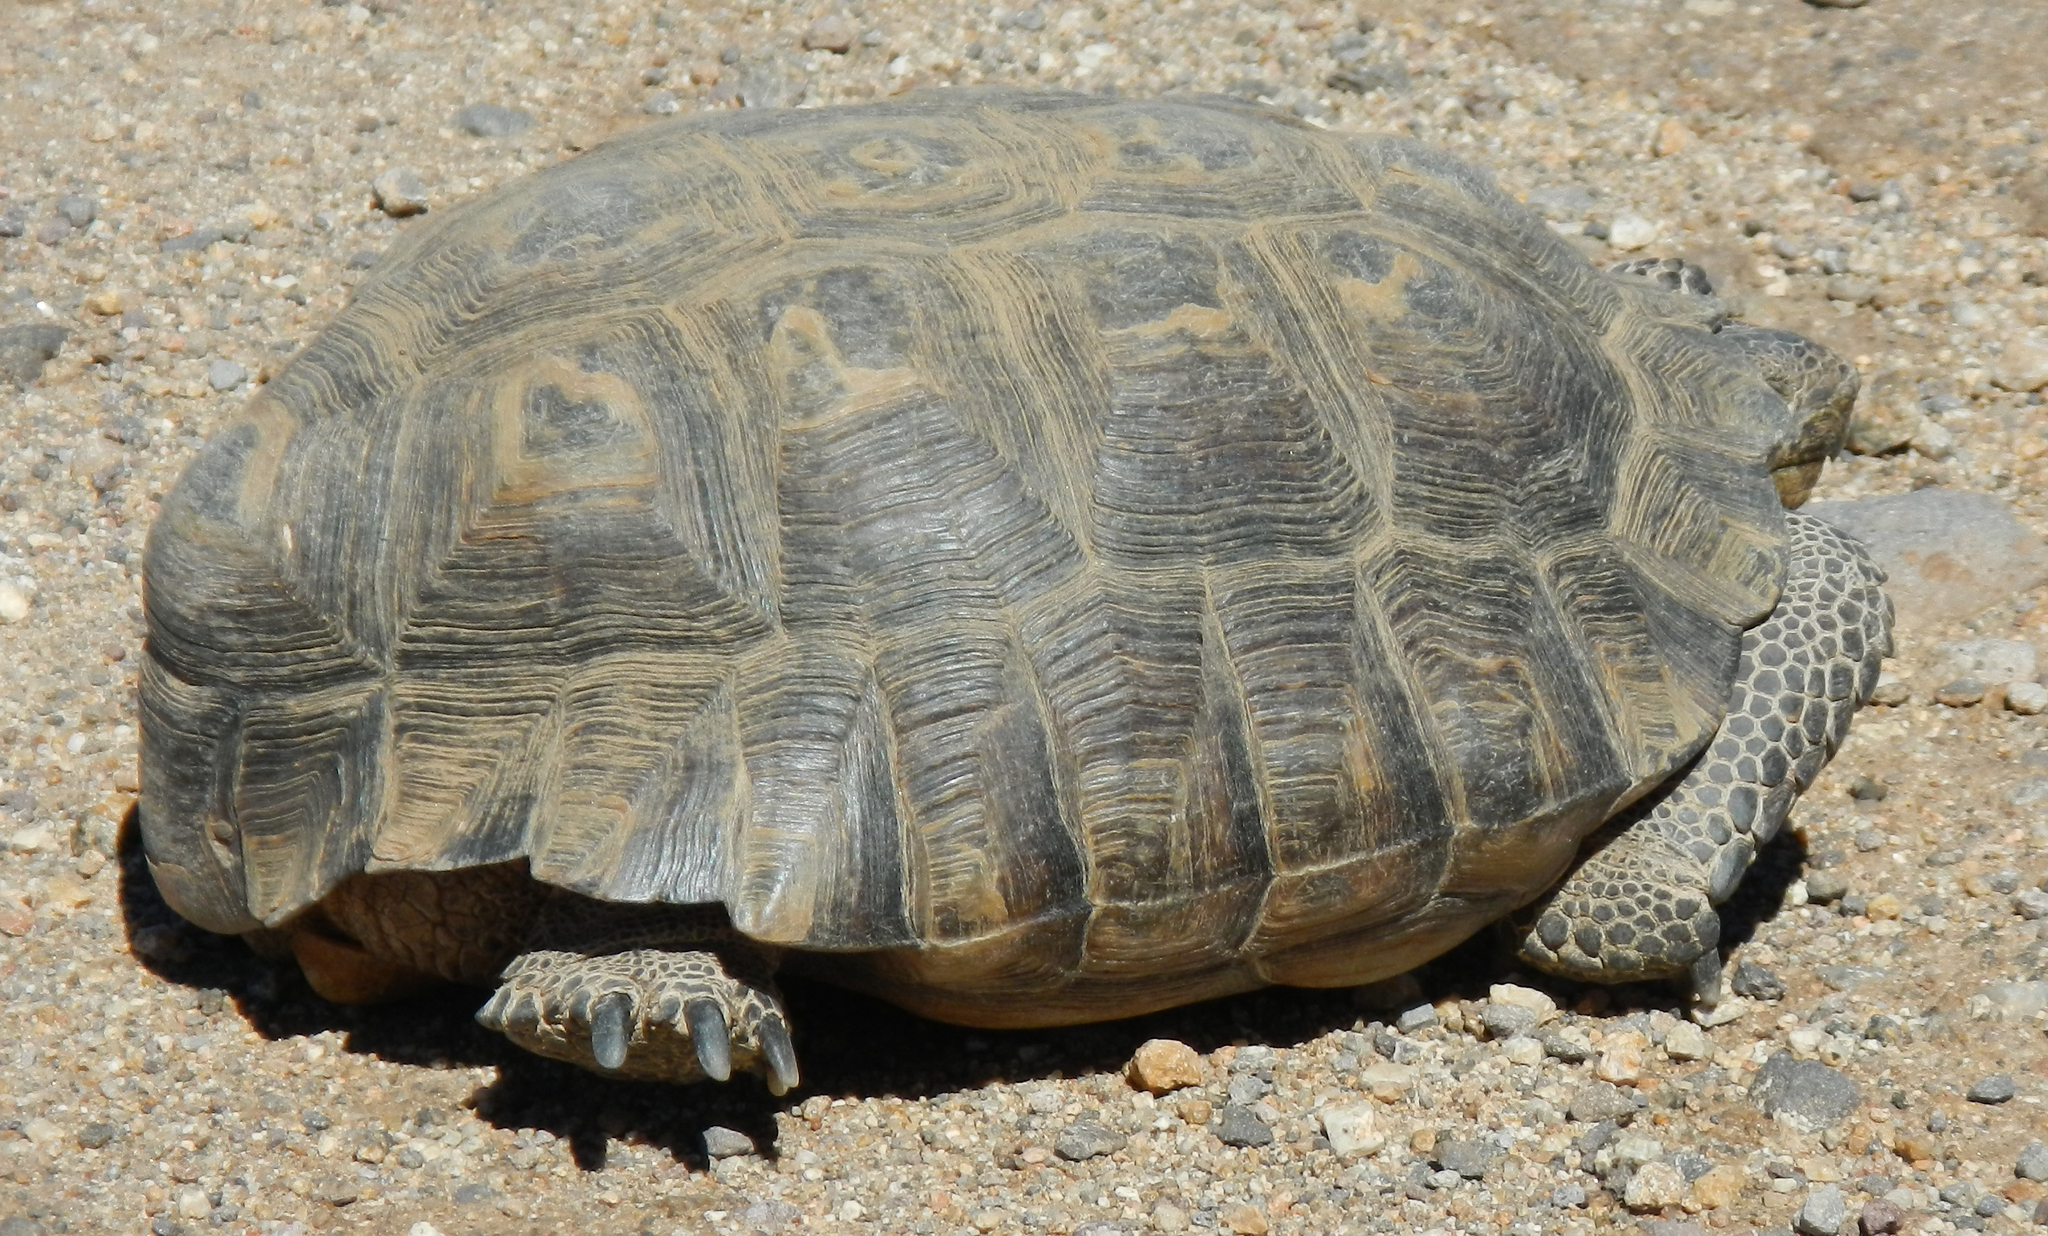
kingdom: Animalia
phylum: Chordata
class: Testudines
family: Testudinidae
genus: Gopherus
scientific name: Gopherus agassizii
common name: Mojave desert tortoise
